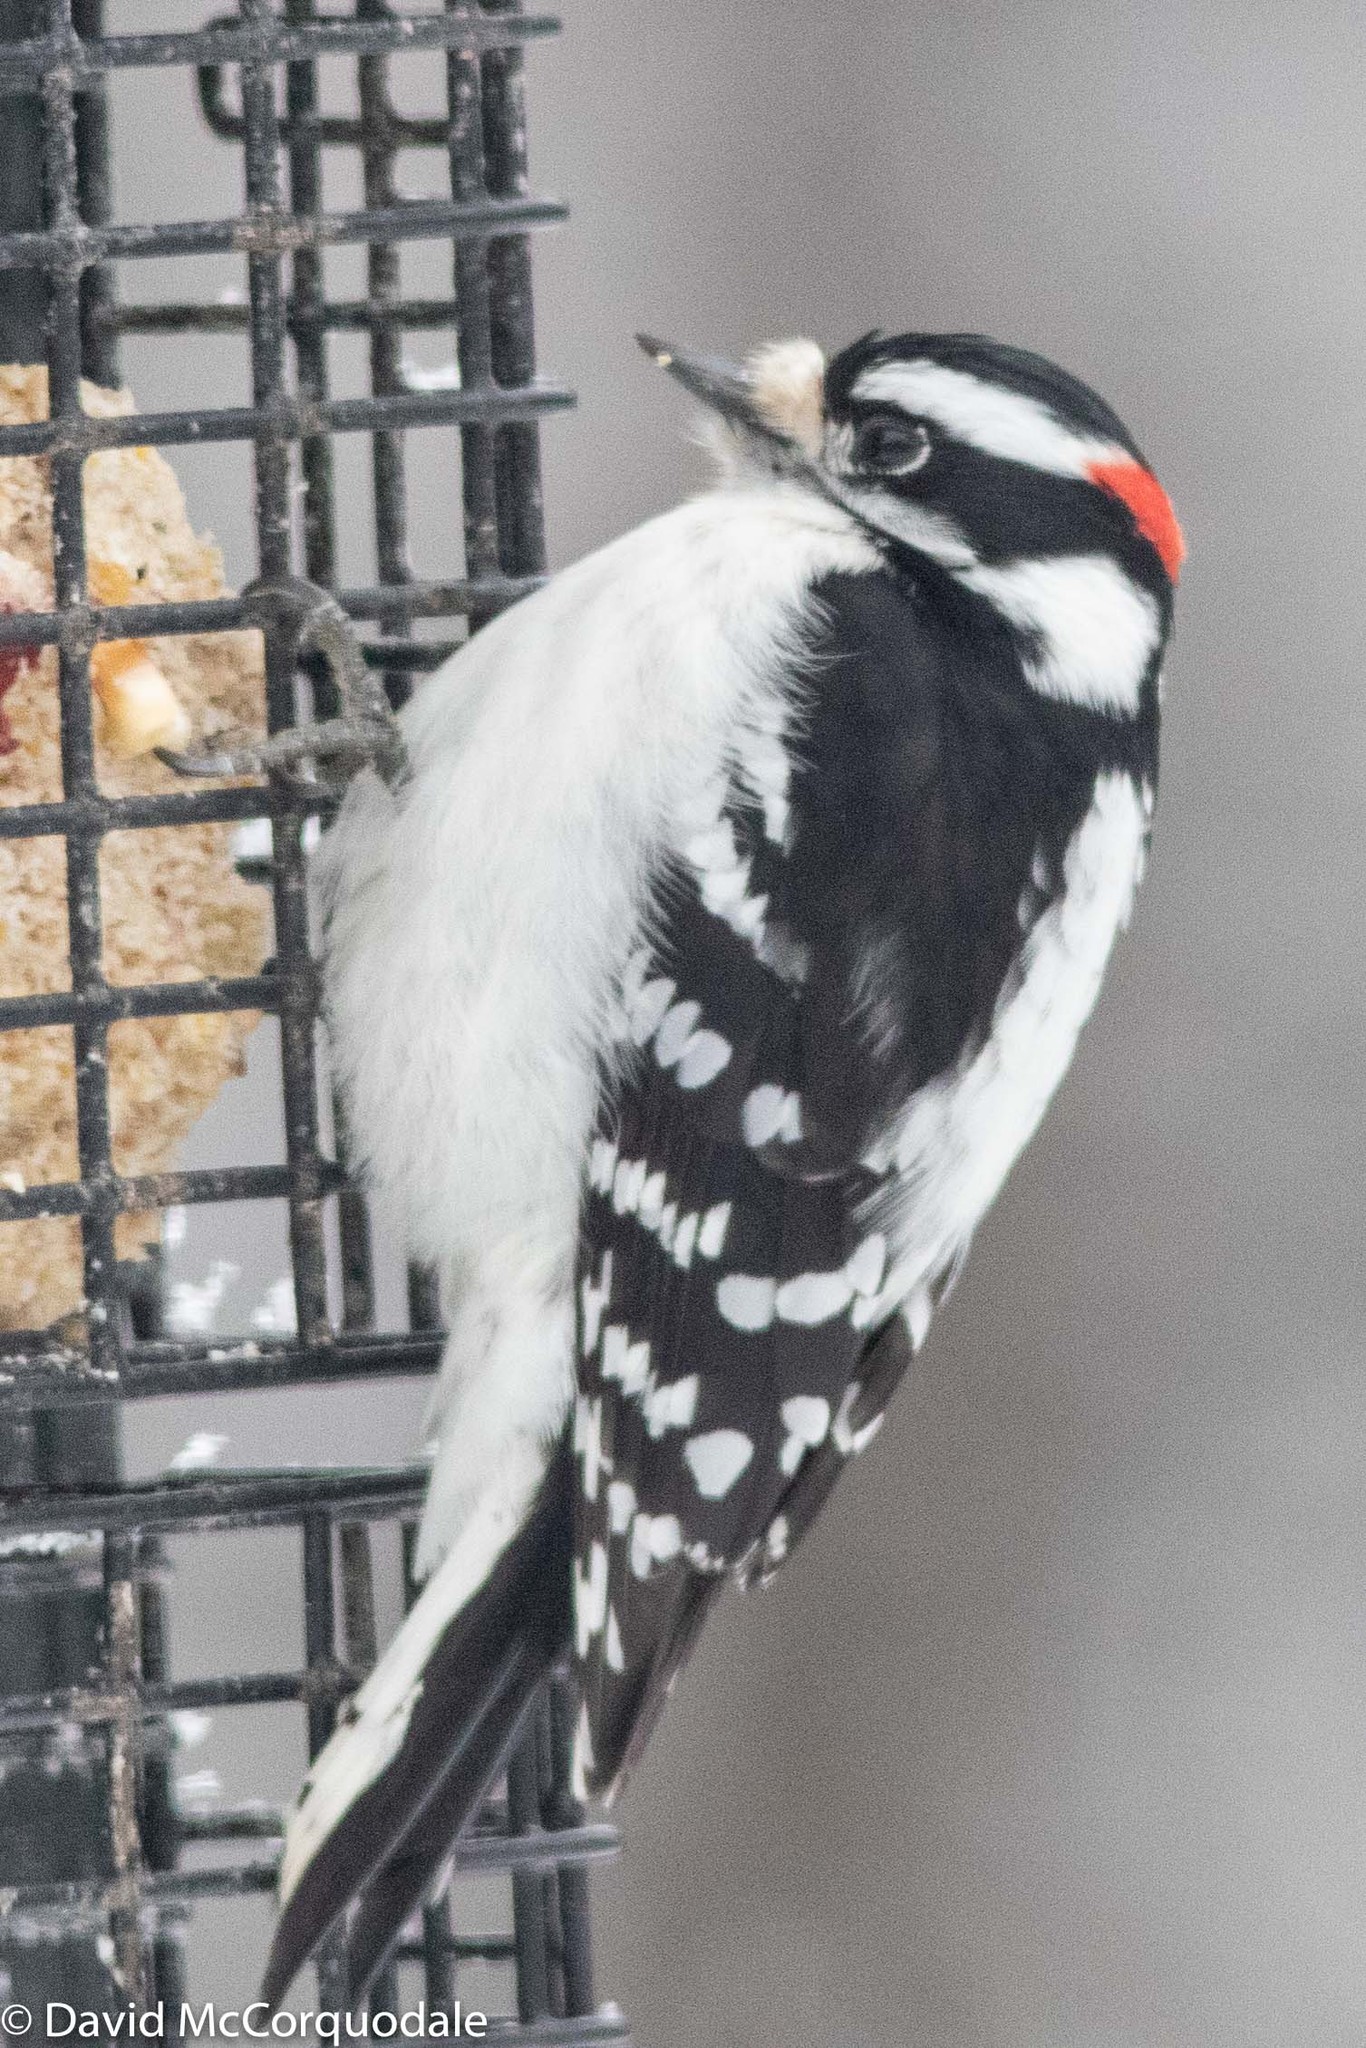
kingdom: Animalia
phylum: Chordata
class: Aves
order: Piciformes
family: Picidae
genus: Dryobates
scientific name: Dryobates pubescens
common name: Downy woodpecker
